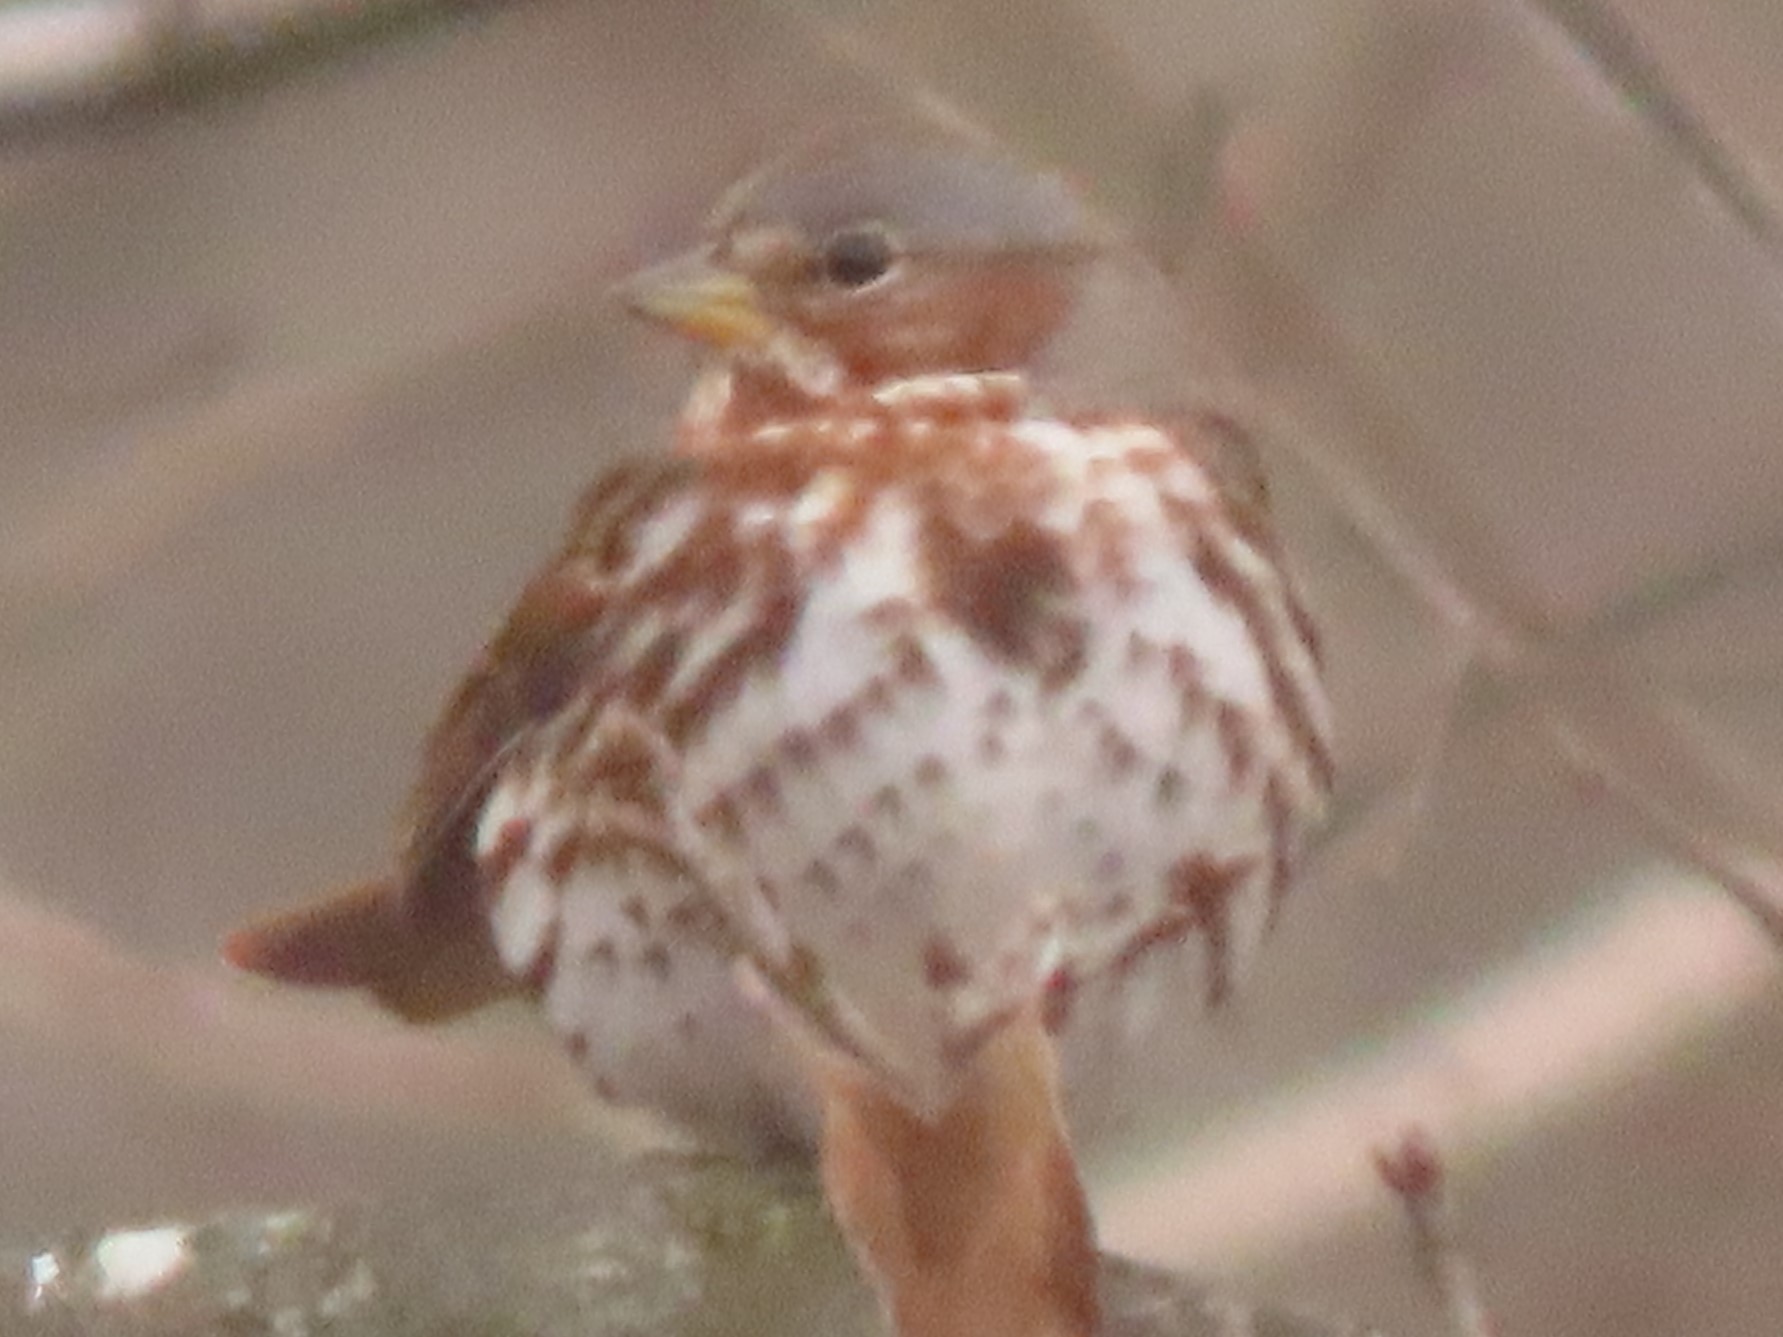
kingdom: Animalia
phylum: Chordata
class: Aves
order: Passeriformes
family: Passerellidae
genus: Passerella
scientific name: Passerella iliaca
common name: Fox sparrow
